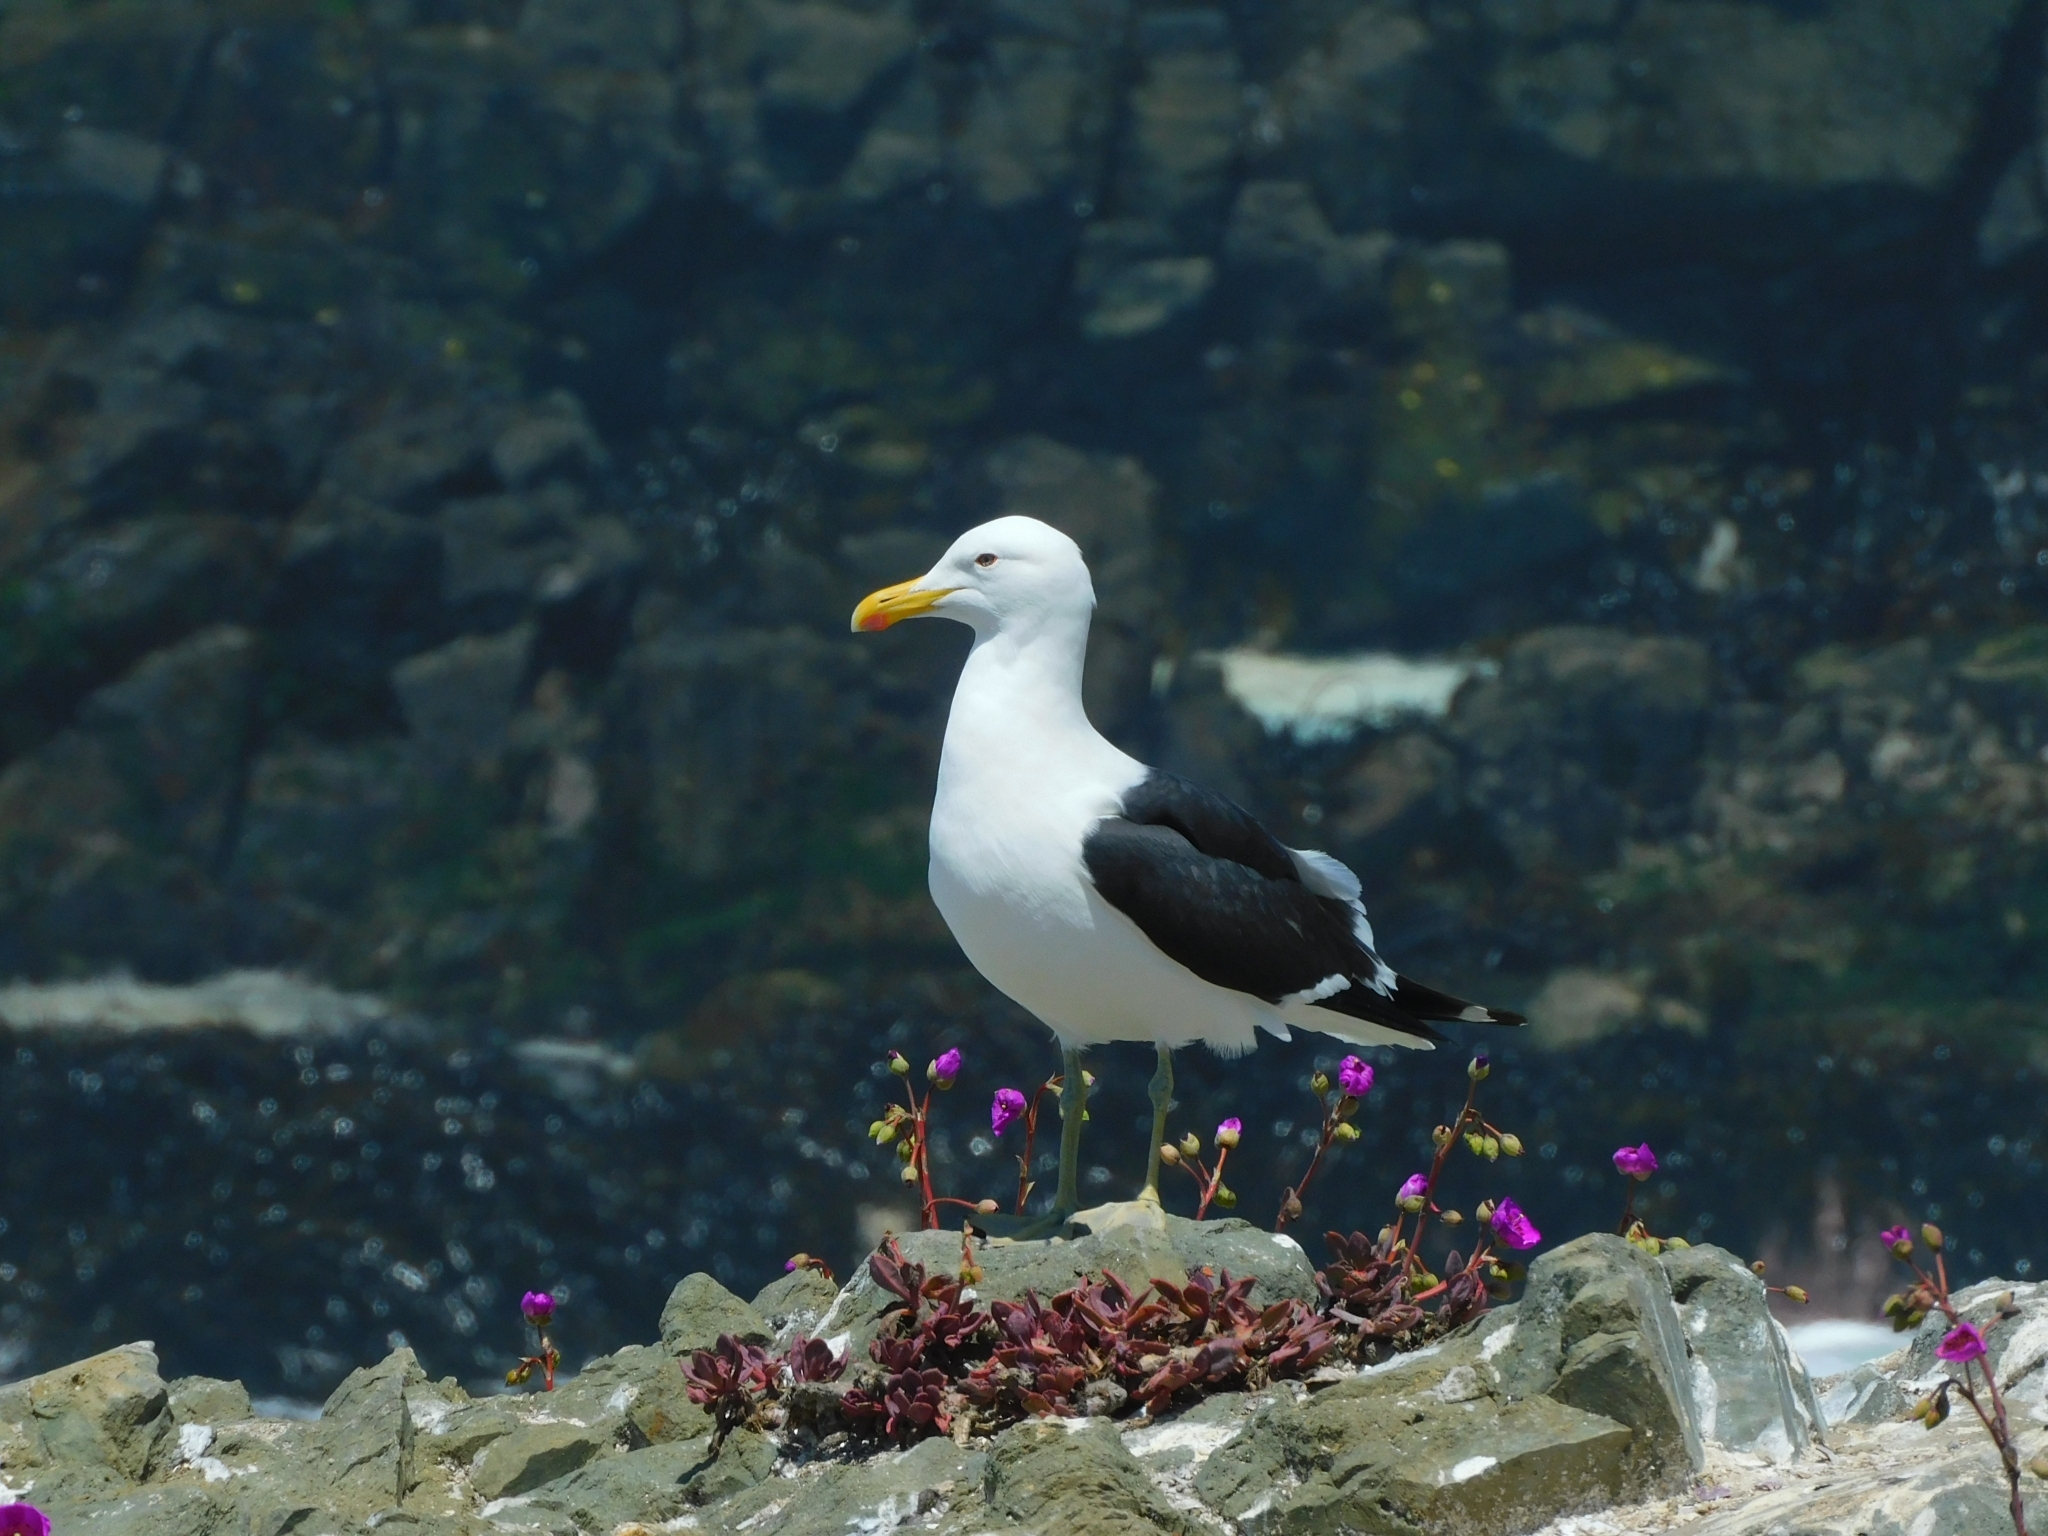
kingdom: Animalia
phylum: Chordata
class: Aves
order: Charadriiformes
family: Laridae
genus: Larus
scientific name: Larus dominicanus
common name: Kelp gull
